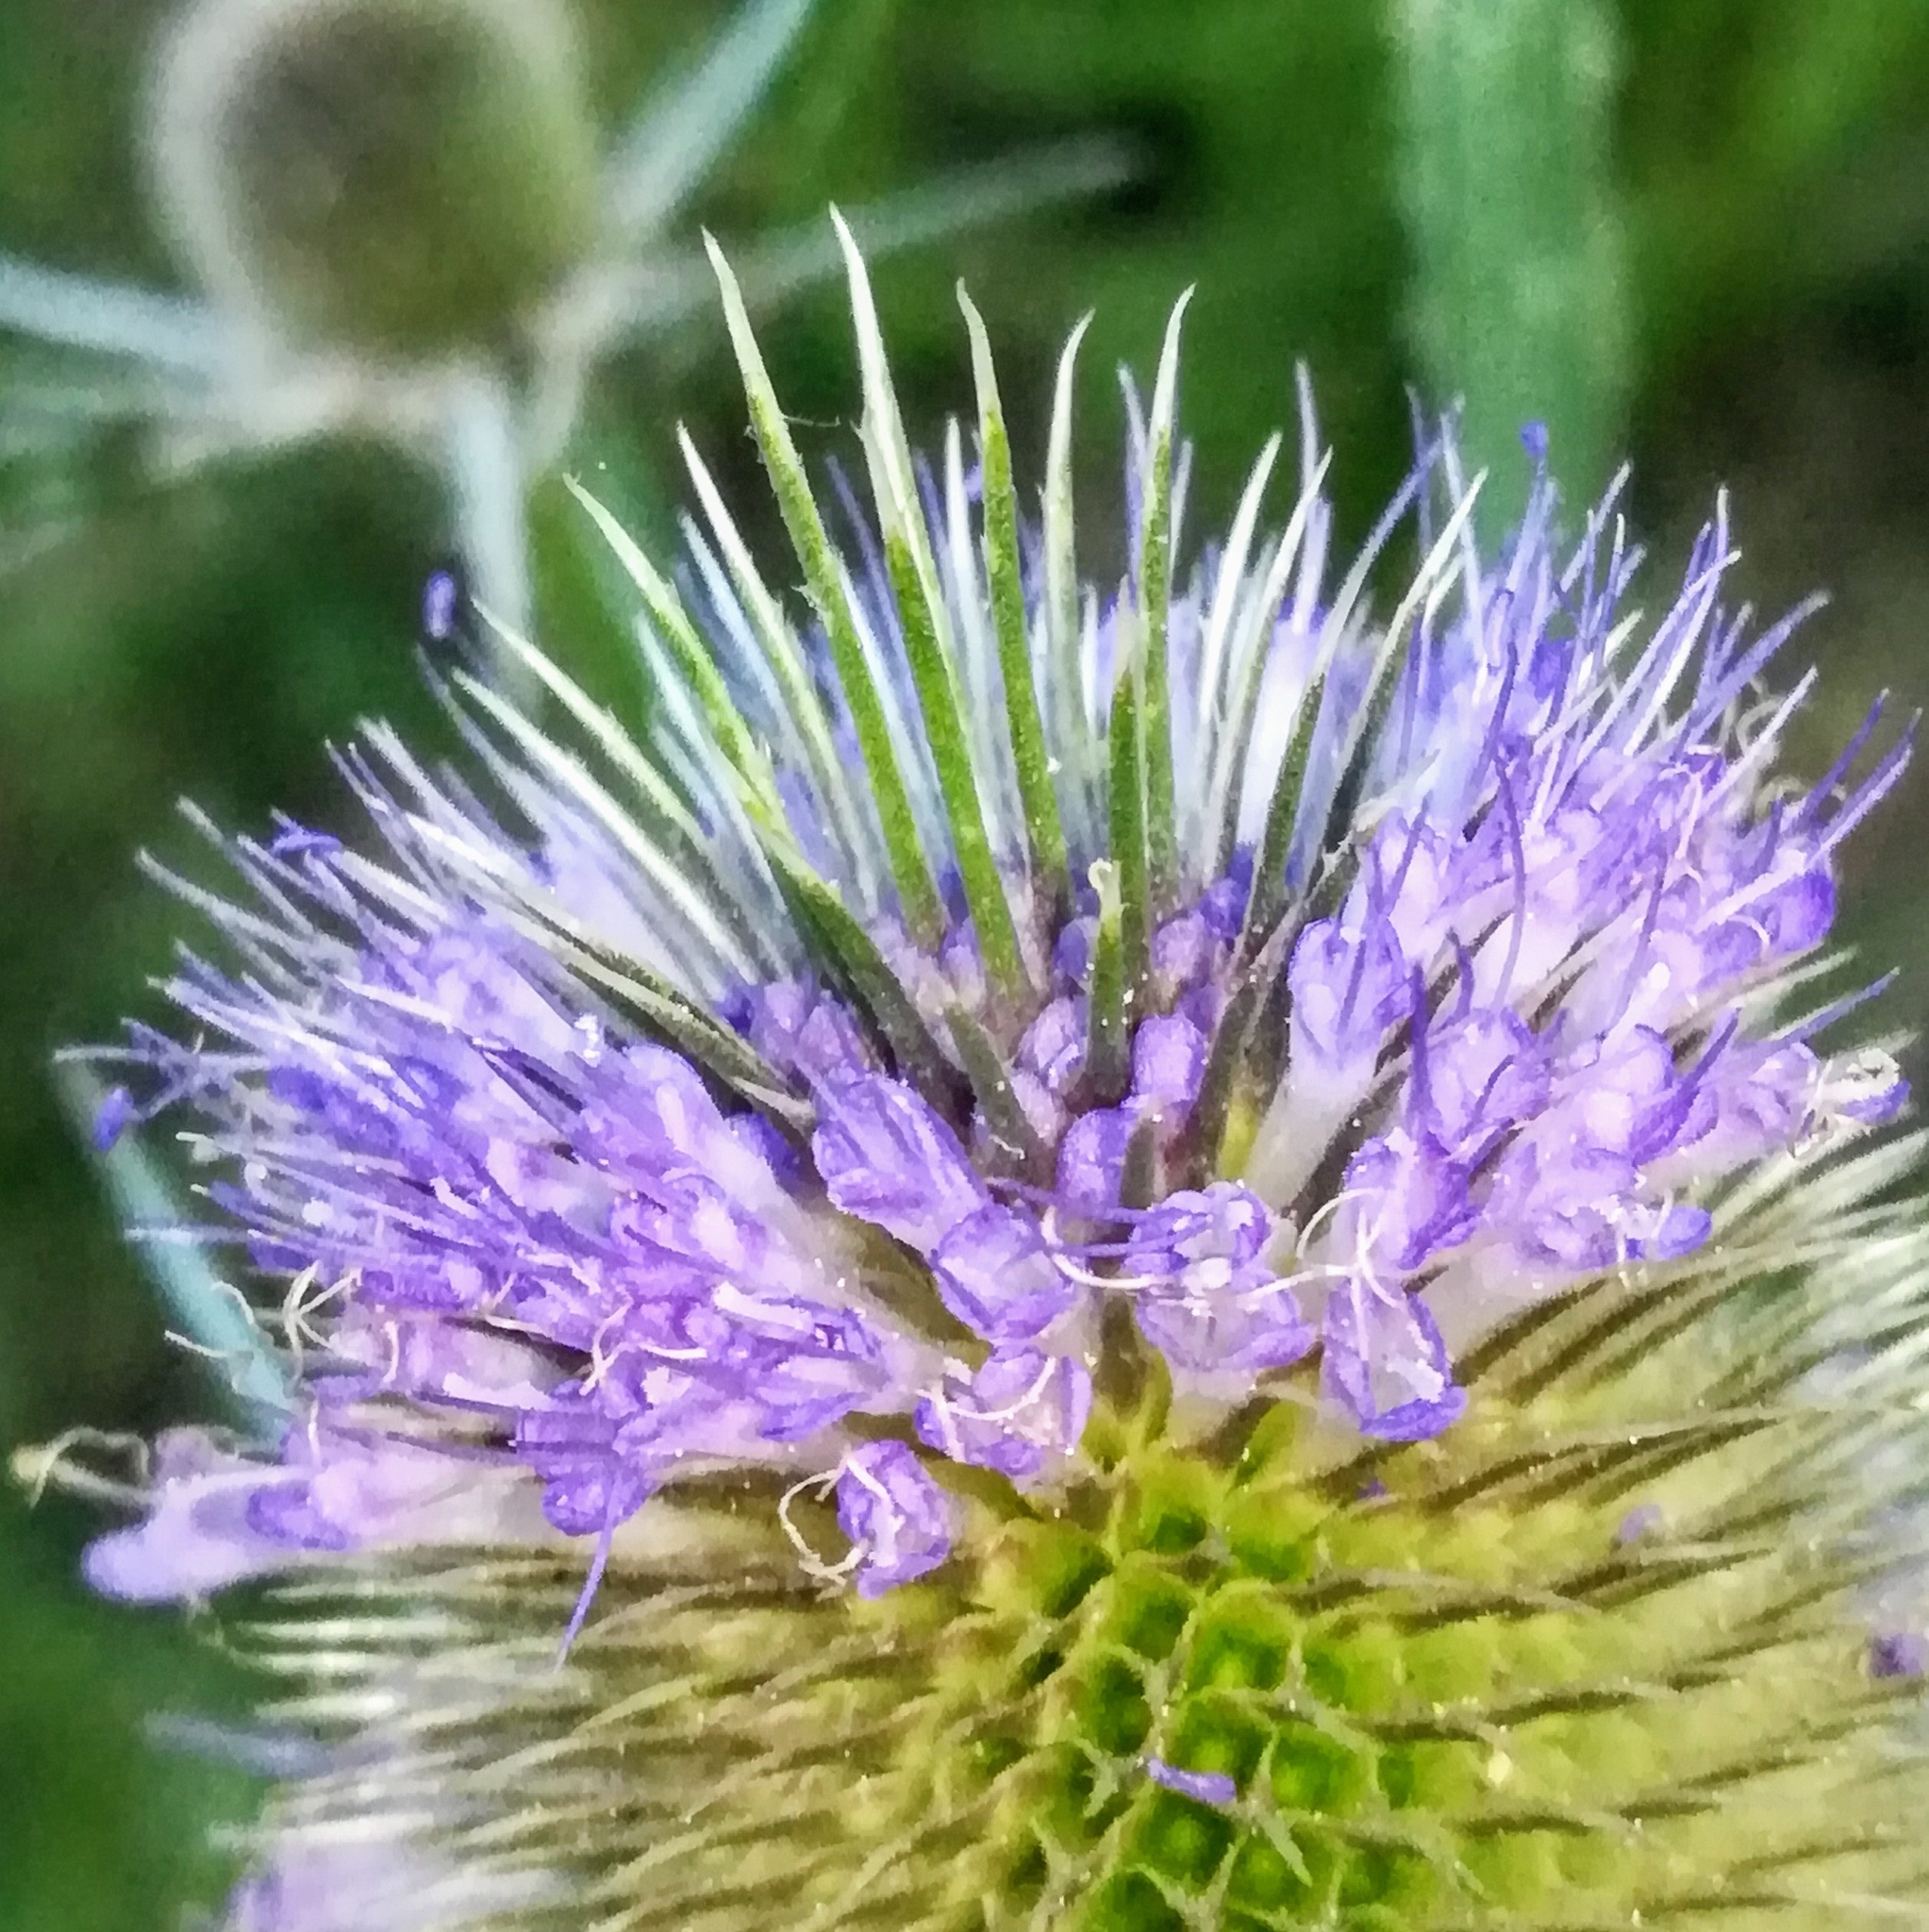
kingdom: Plantae
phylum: Tracheophyta
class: Magnoliopsida
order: Dipsacales
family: Caprifoliaceae
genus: Dipsacus
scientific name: Dipsacus fullonum
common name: Teasel
